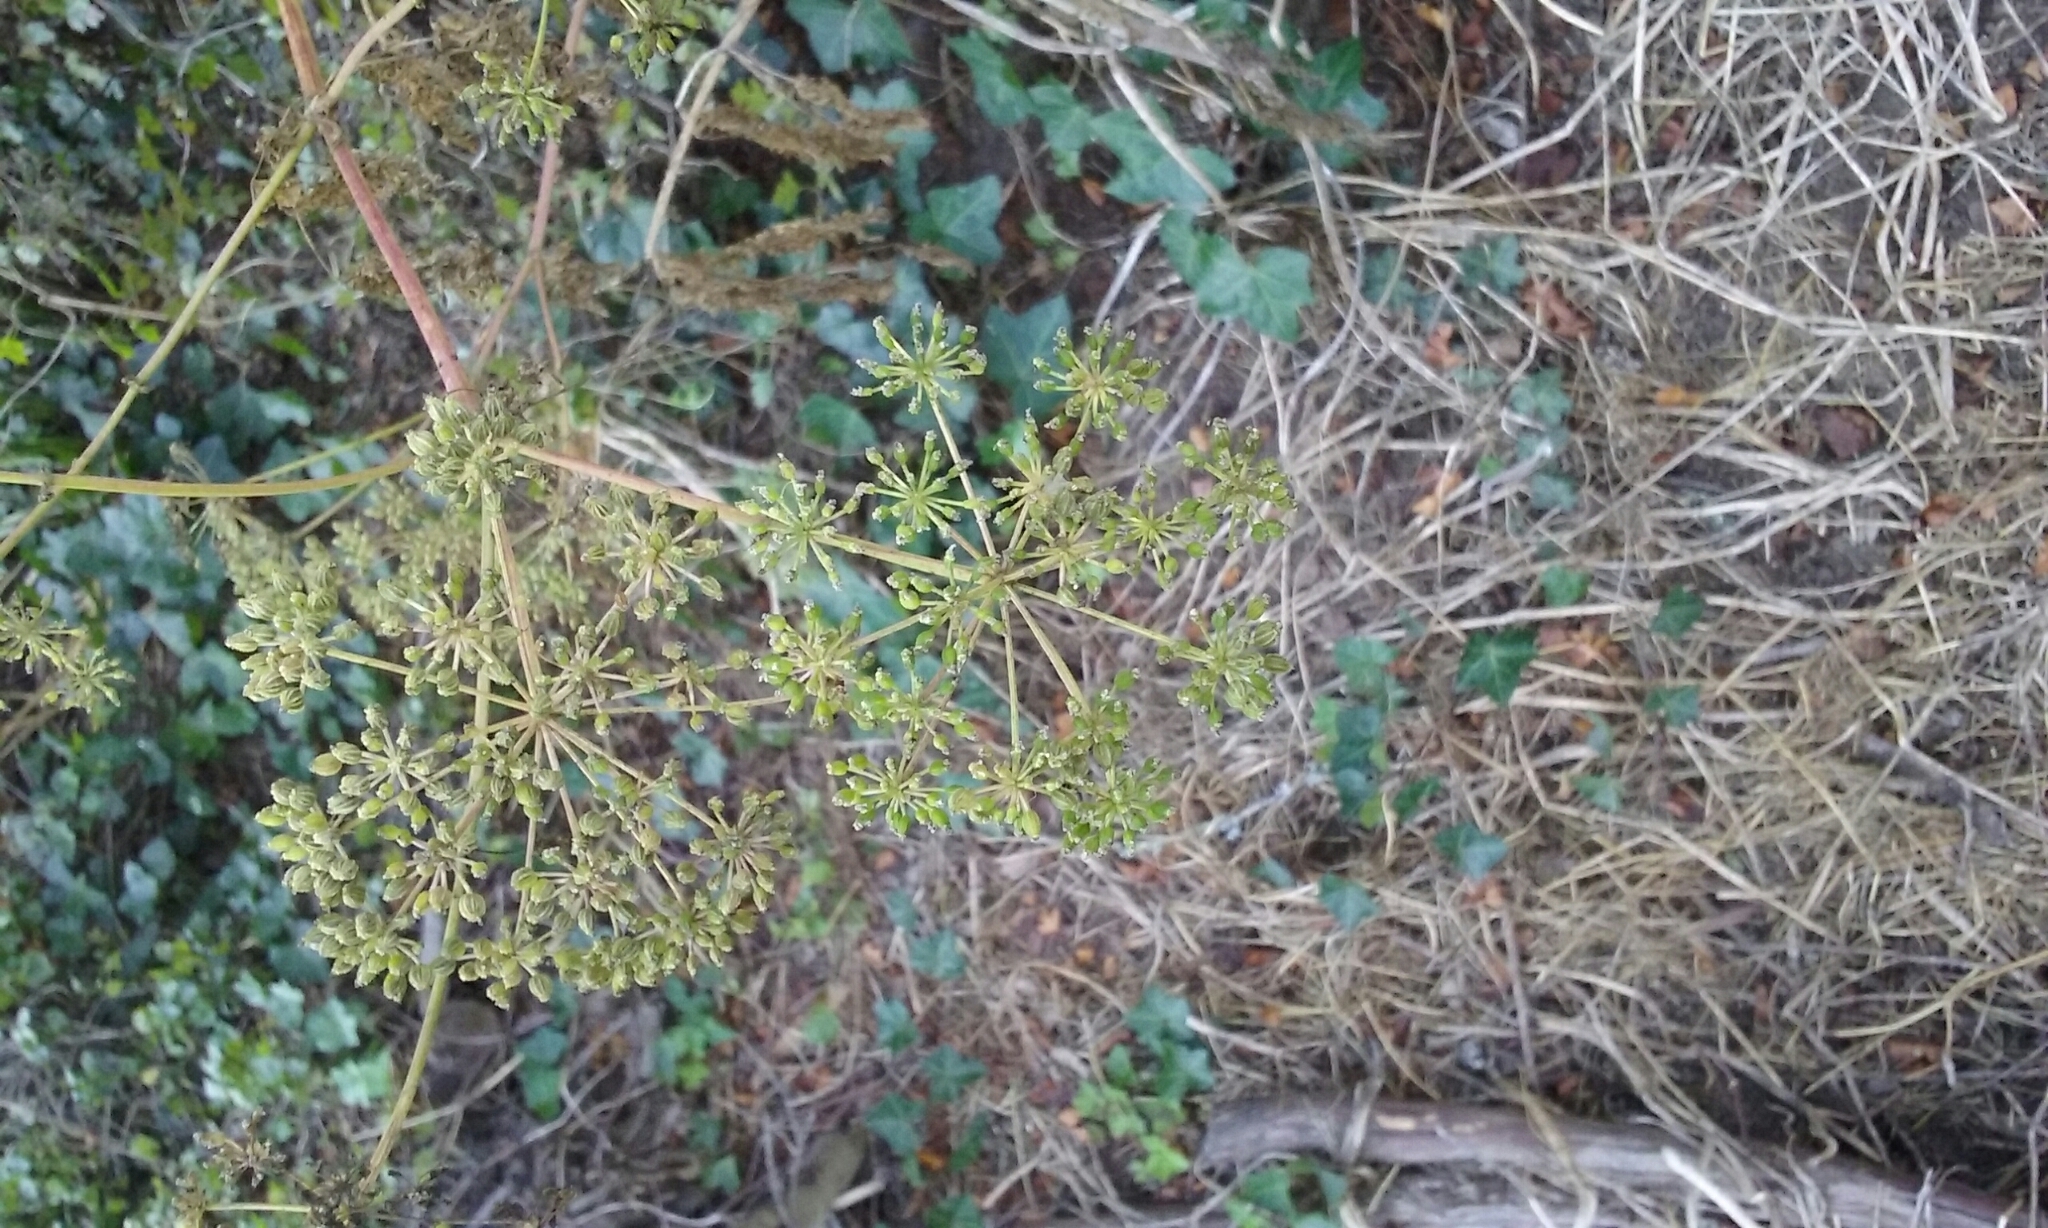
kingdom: Plantae
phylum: Tracheophyta
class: Magnoliopsida
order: Apiales
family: Apiaceae
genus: Conium
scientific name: Conium maculatum
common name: Hemlock
